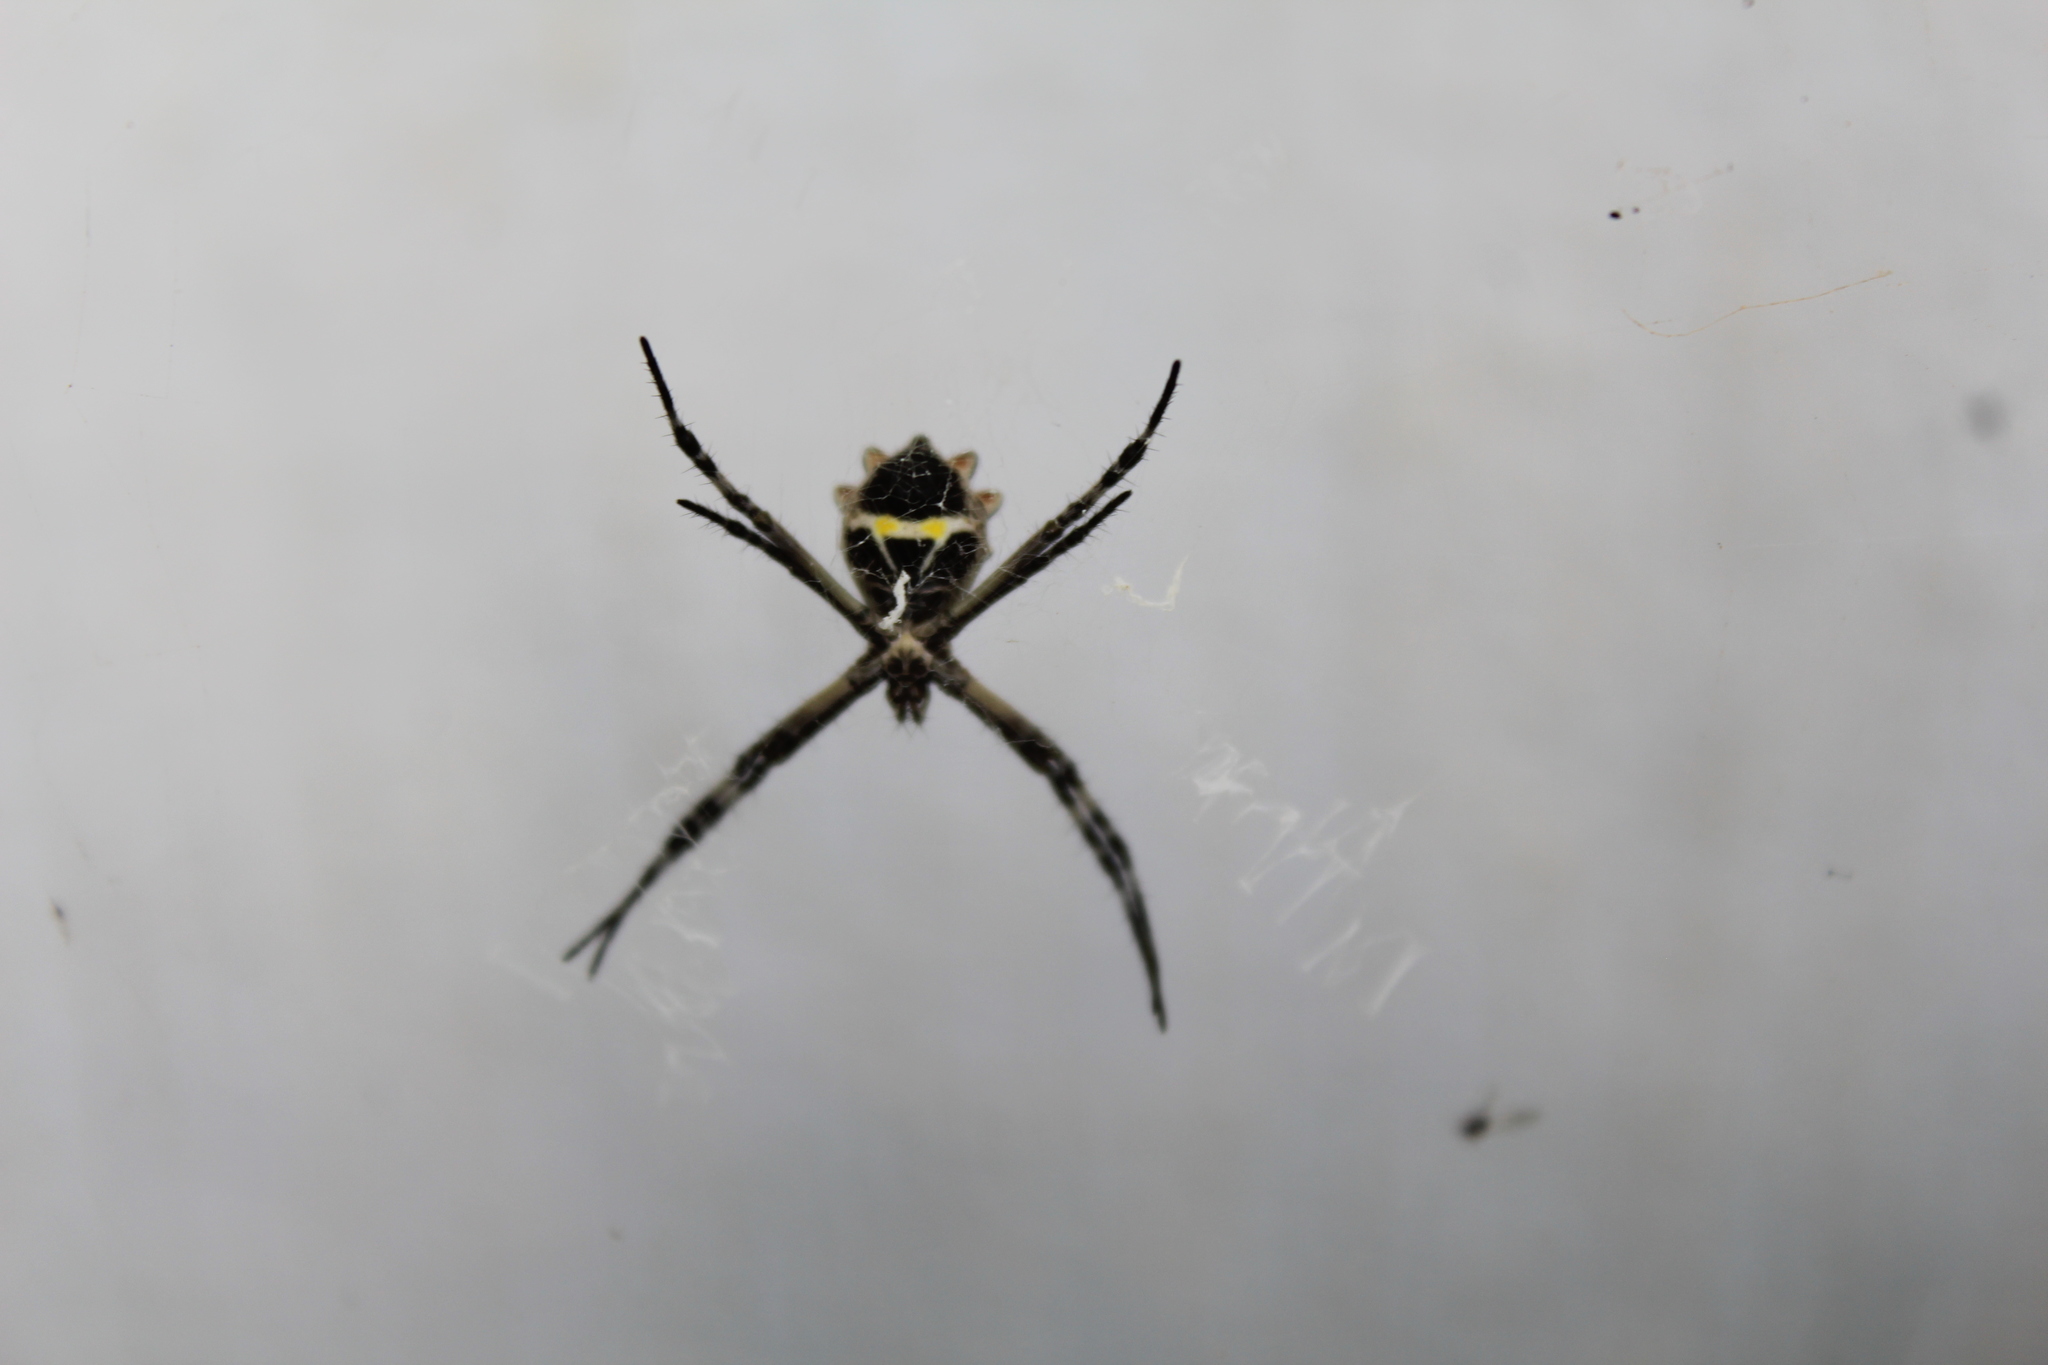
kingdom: Animalia
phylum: Arthropoda
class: Arachnida
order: Araneae
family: Araneidae
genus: Argiope
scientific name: Argiope argentata
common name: Orb weavers
